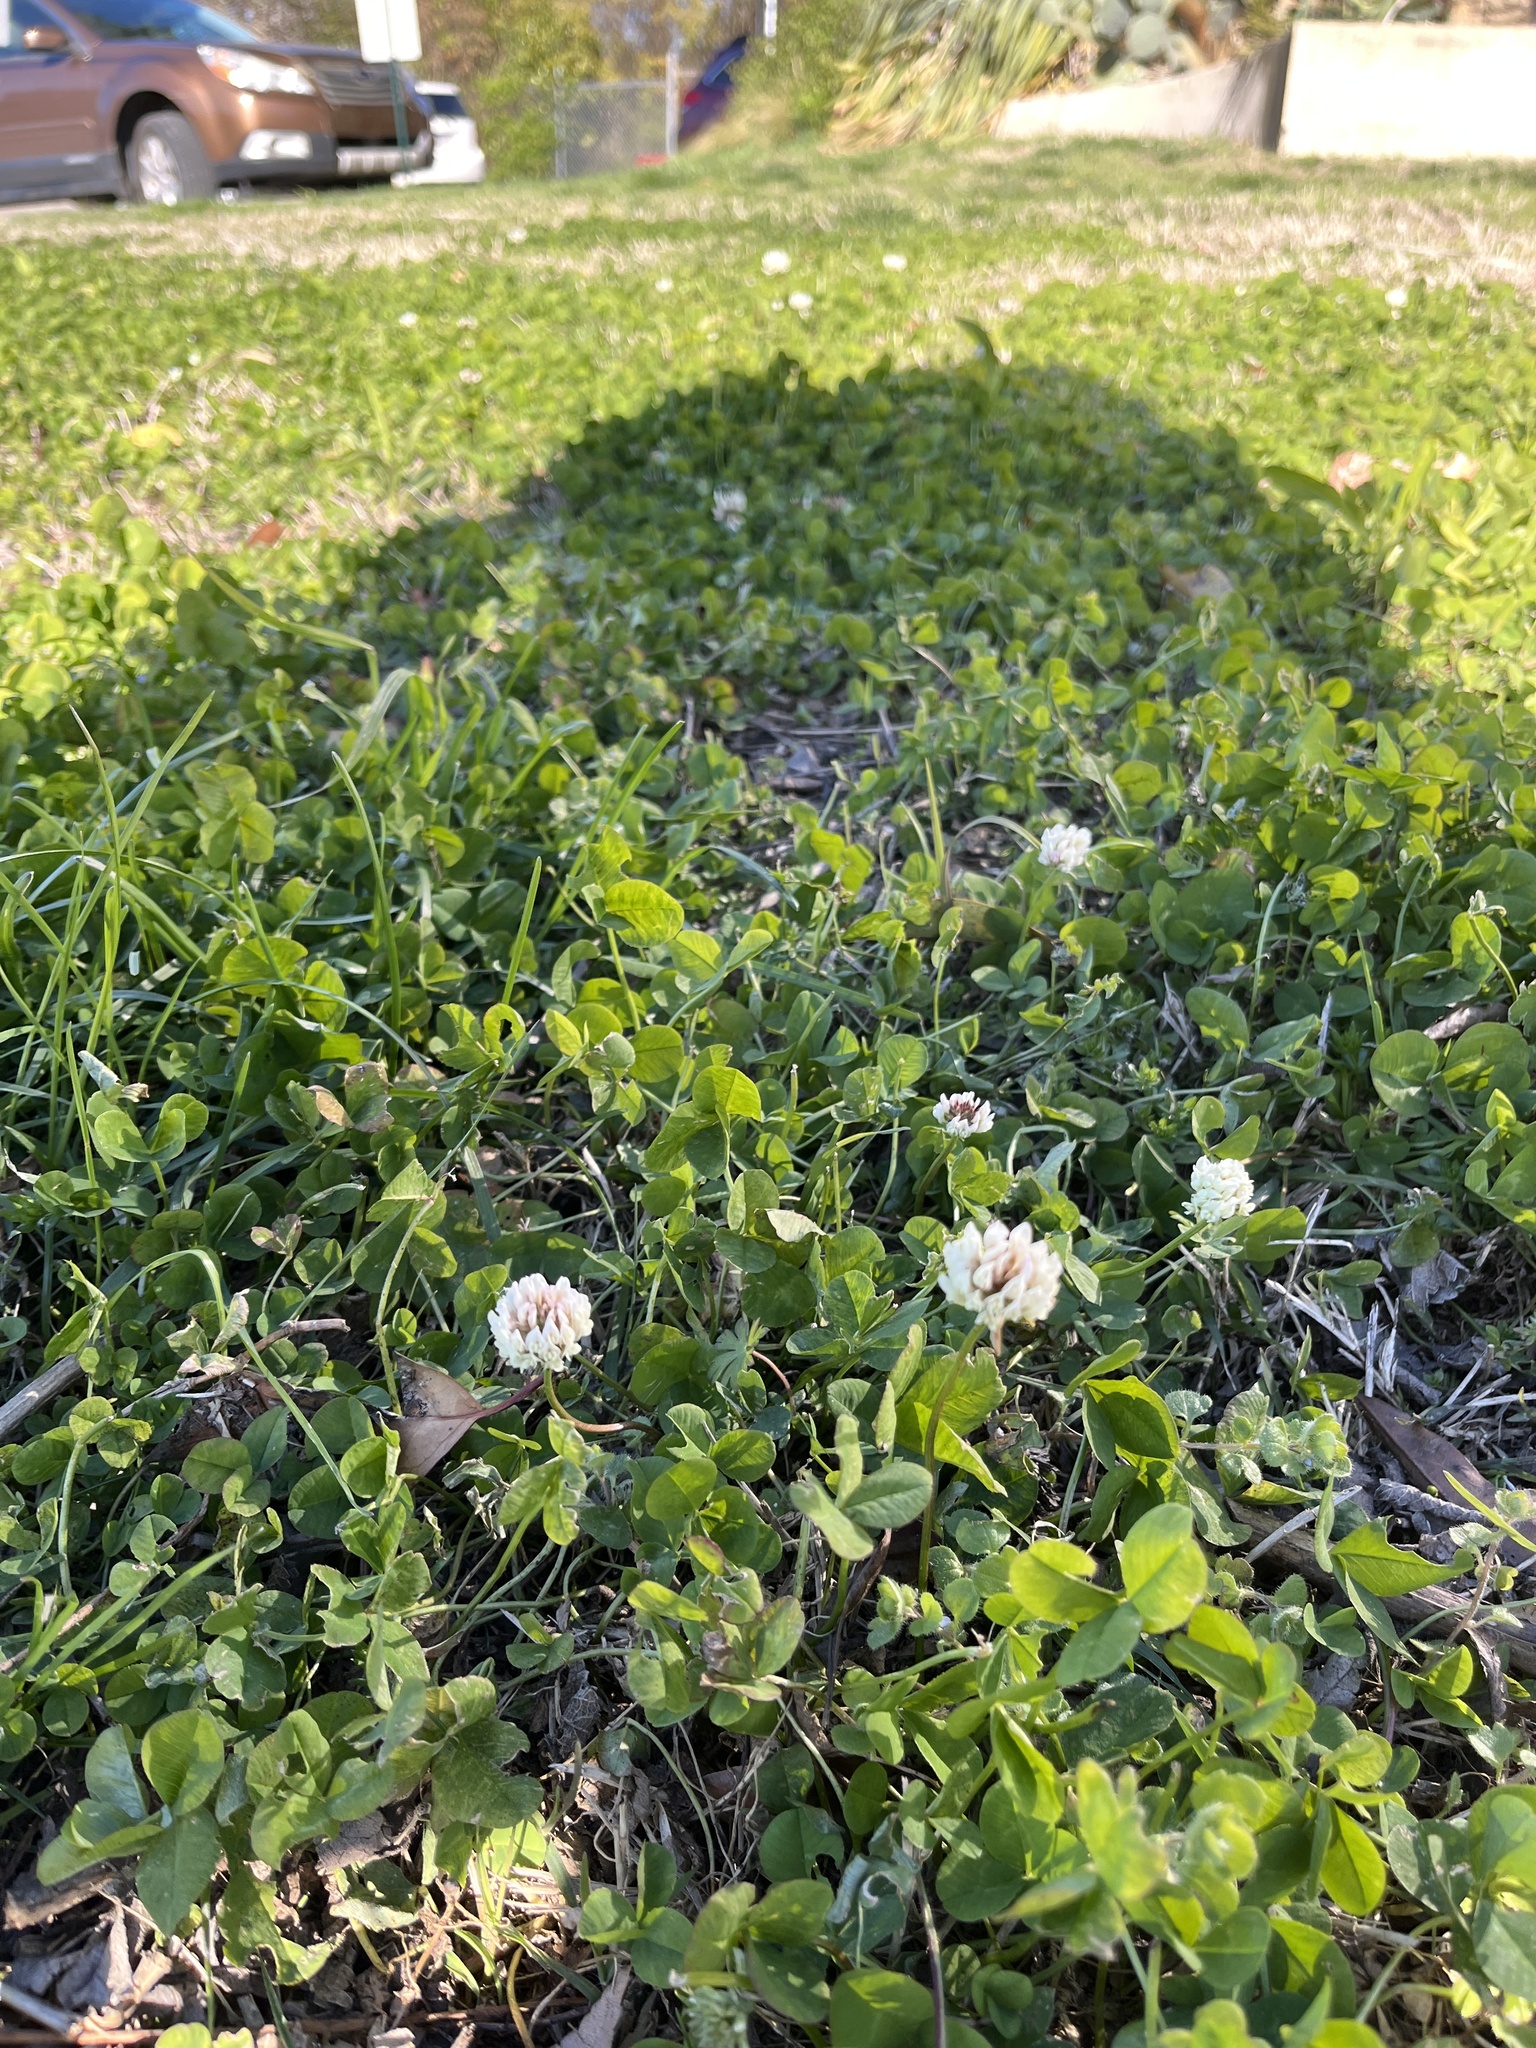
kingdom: Plantae
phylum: Tracheophyta
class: Magnoliopsida
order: Fabales
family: Fabaceae
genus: Trifolium
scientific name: Trifolium repens
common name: White clover
